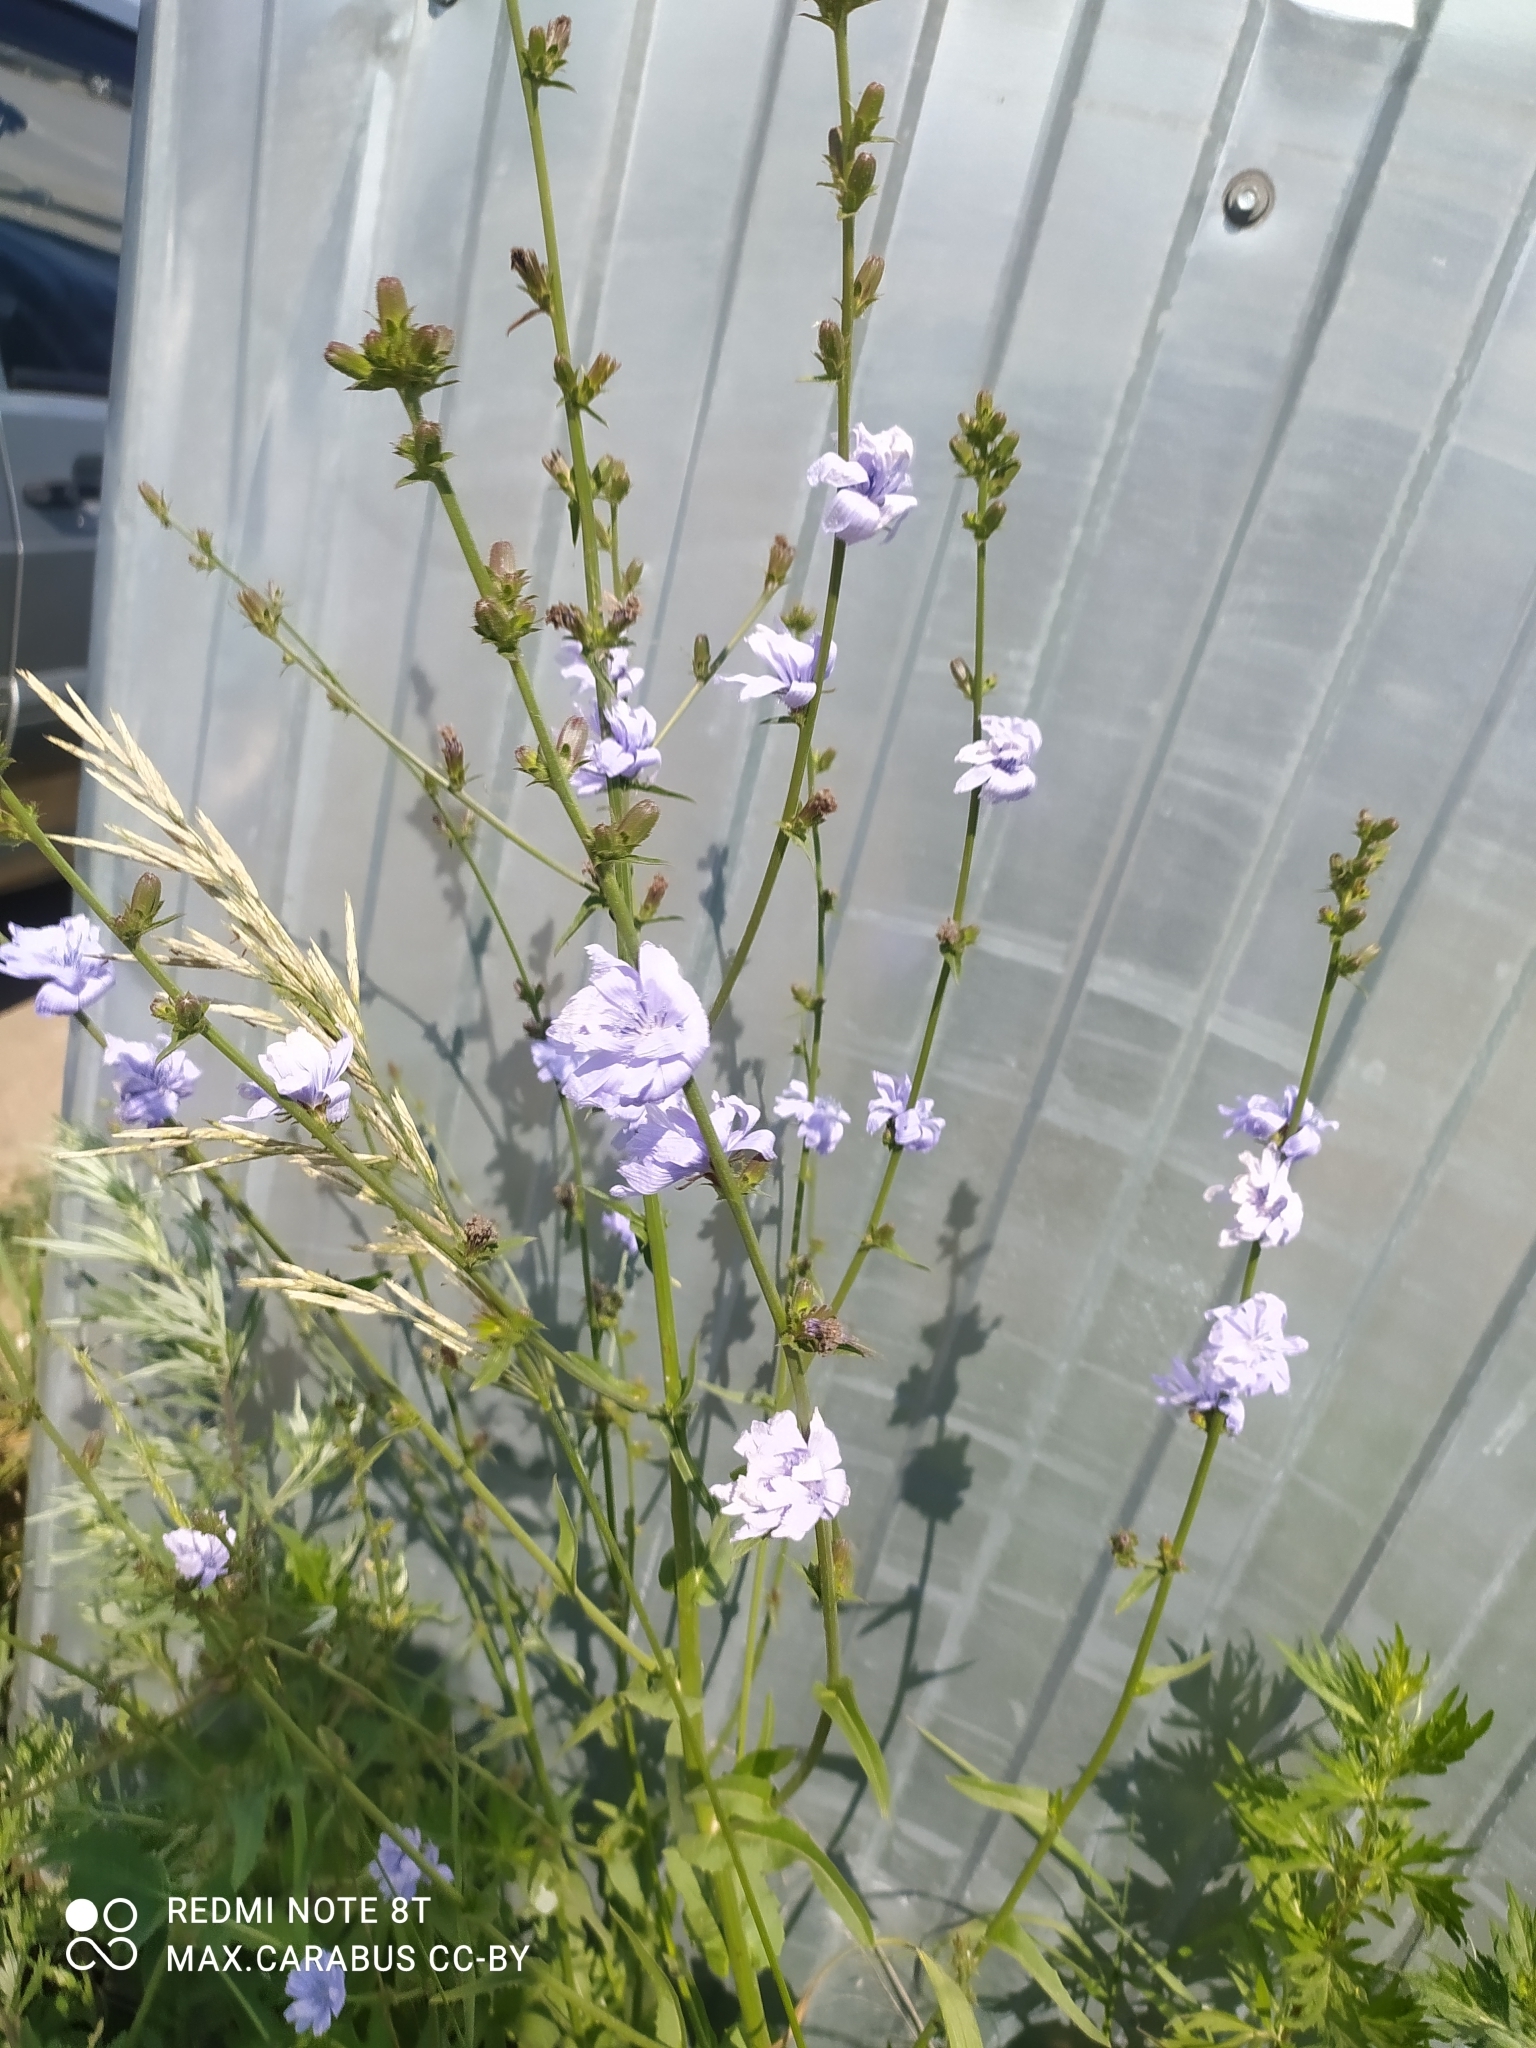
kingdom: Plantae
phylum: Tracheophyta
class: Magnoliopsida
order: Asterales
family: Asteraceae
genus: Cichorium
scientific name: Cichorium intybus
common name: Chicory
